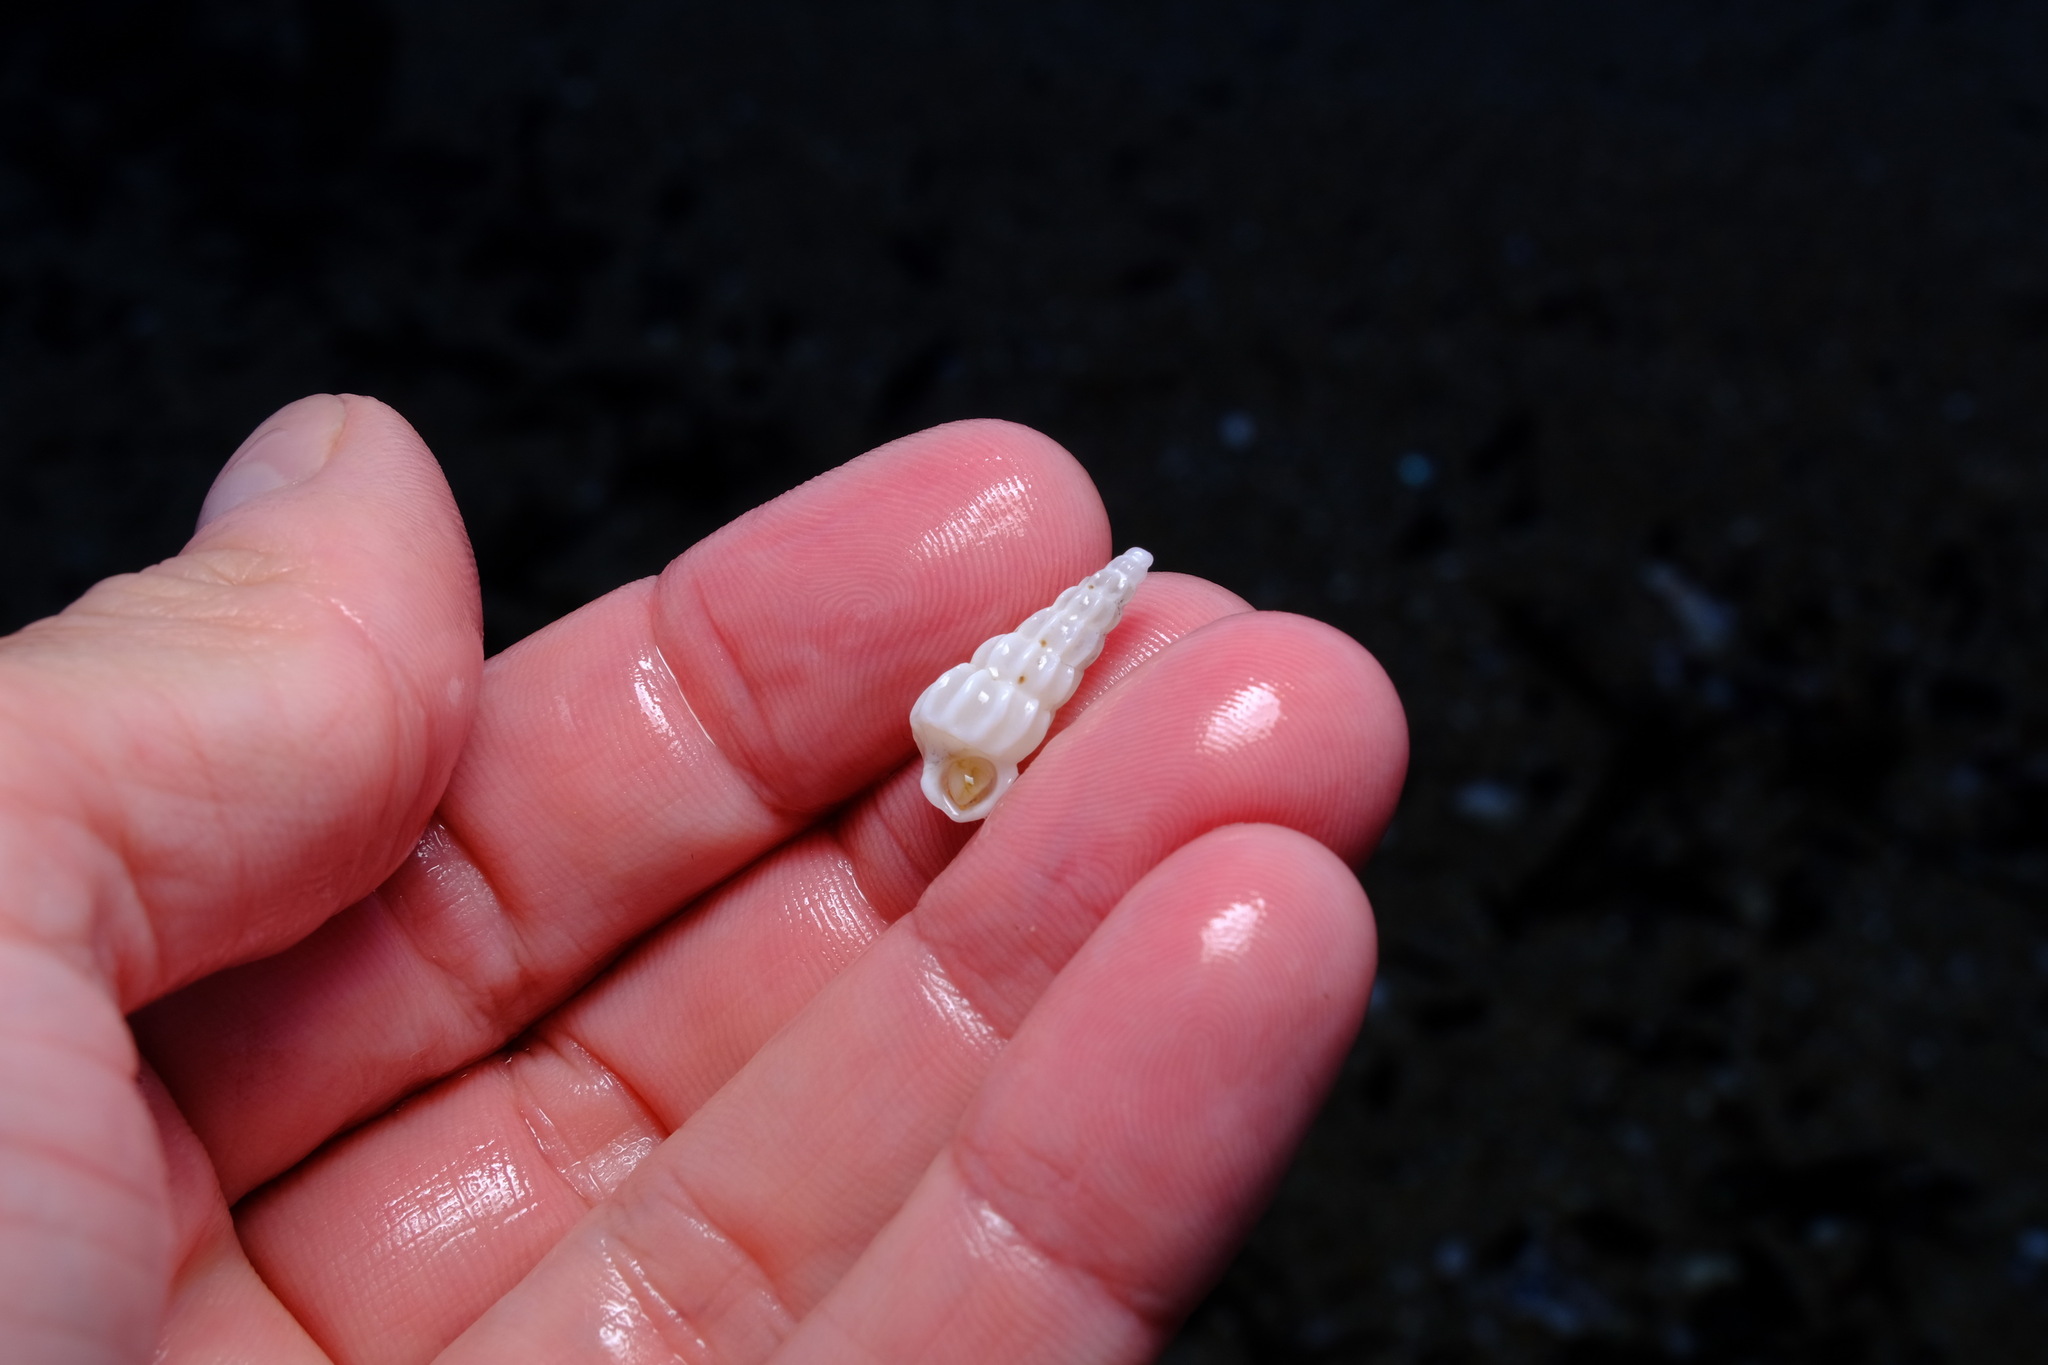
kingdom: Animalia
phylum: Mollusca
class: Gastropoda
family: Epitoniidae
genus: Opalia
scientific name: Opalia australis
